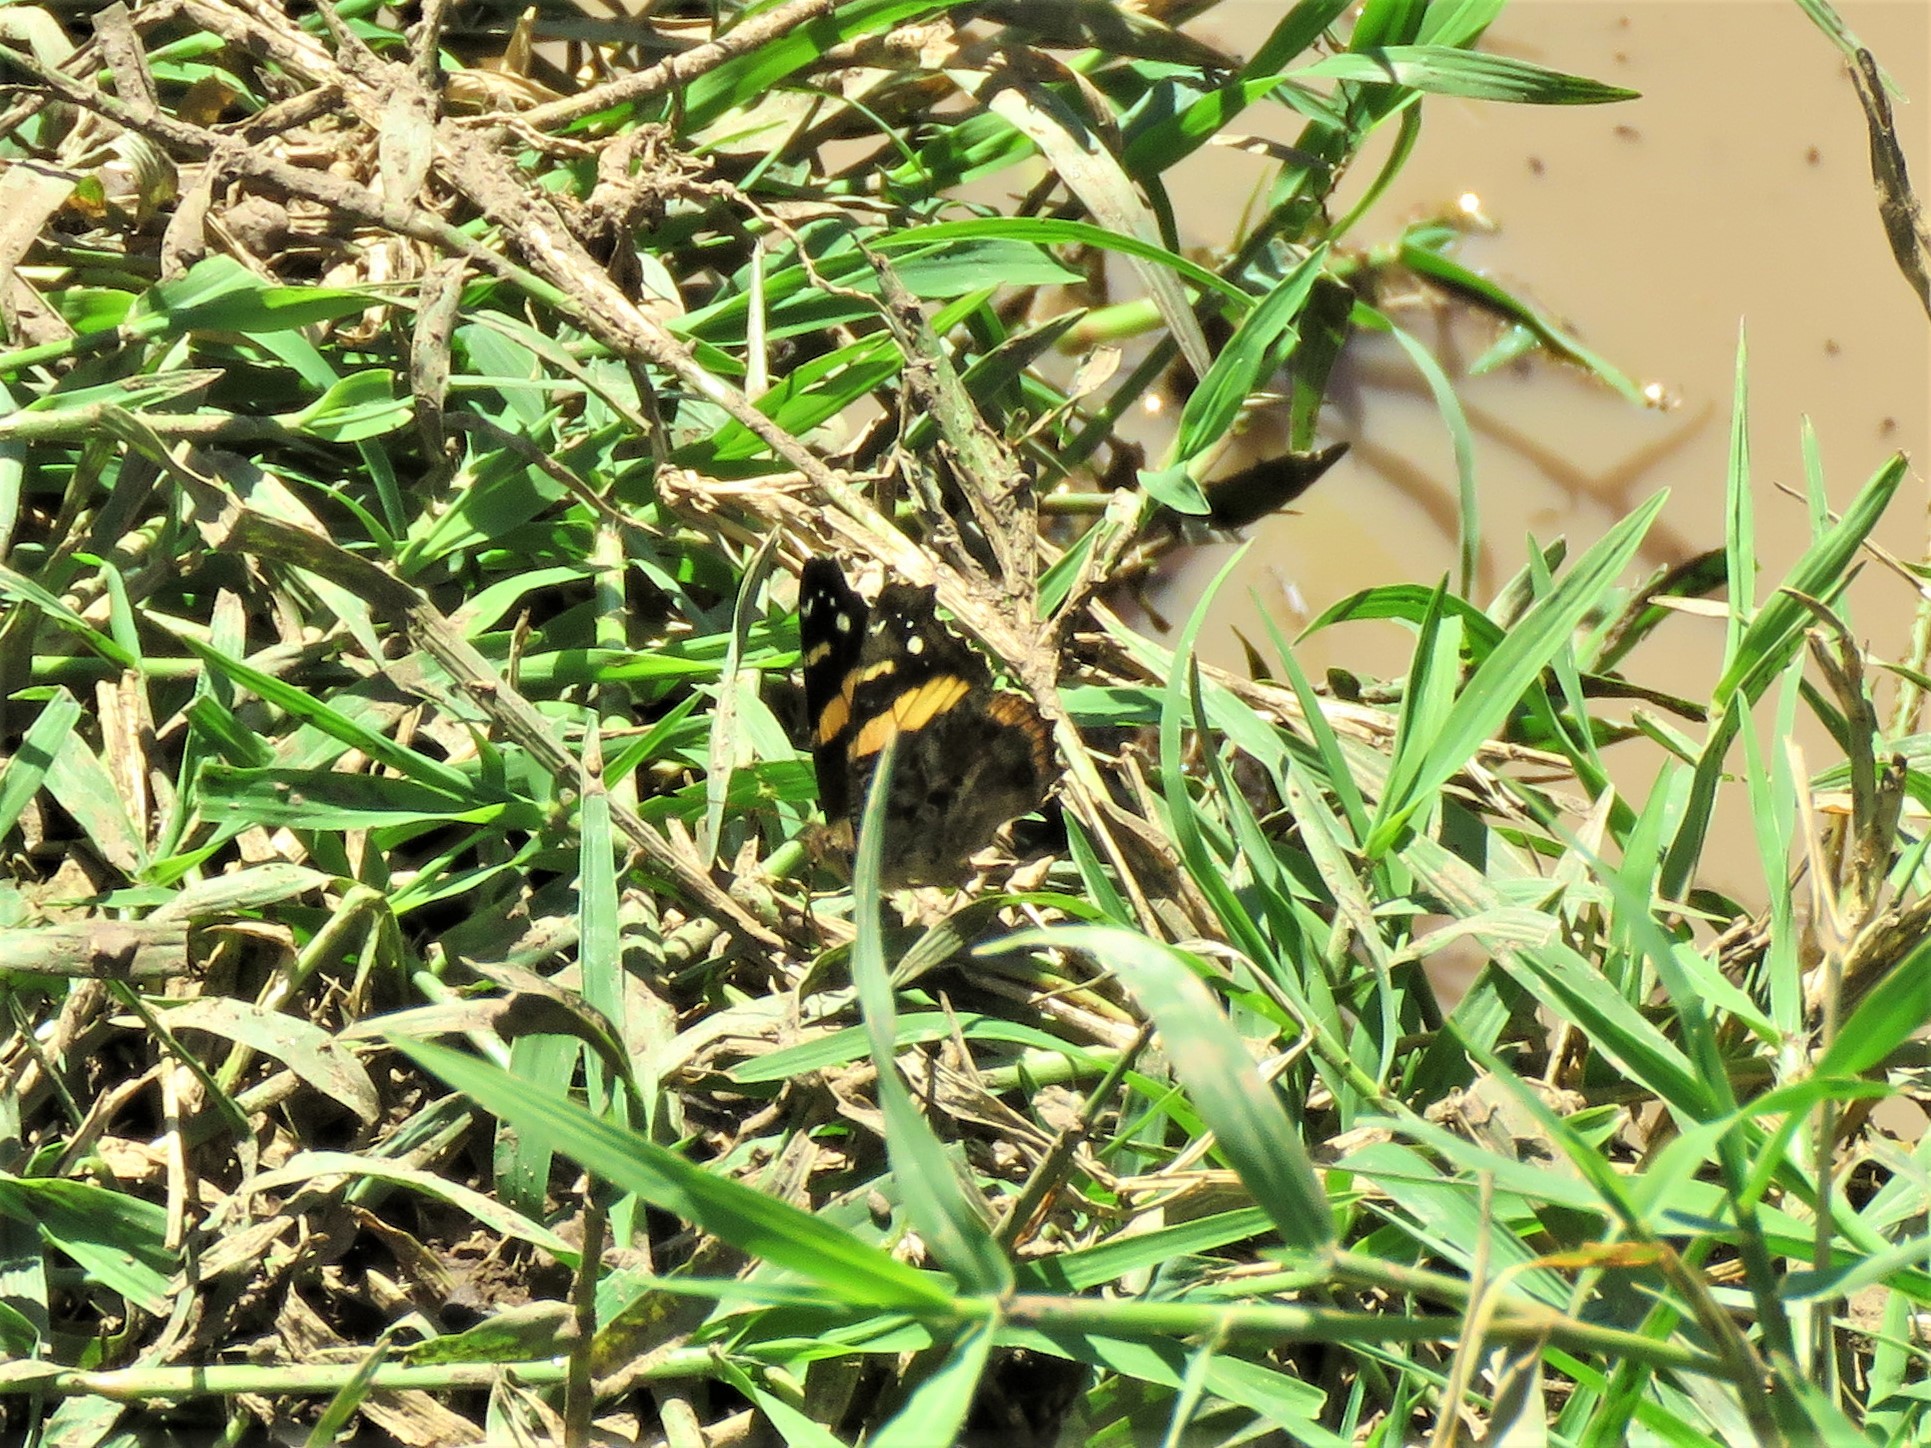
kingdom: Animalia
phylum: Arthropoda
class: Insecta
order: Lepidoptera
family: Nymphalidae
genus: Vanessa
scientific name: Vanessa abyssinica
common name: Abyssinian admiral
